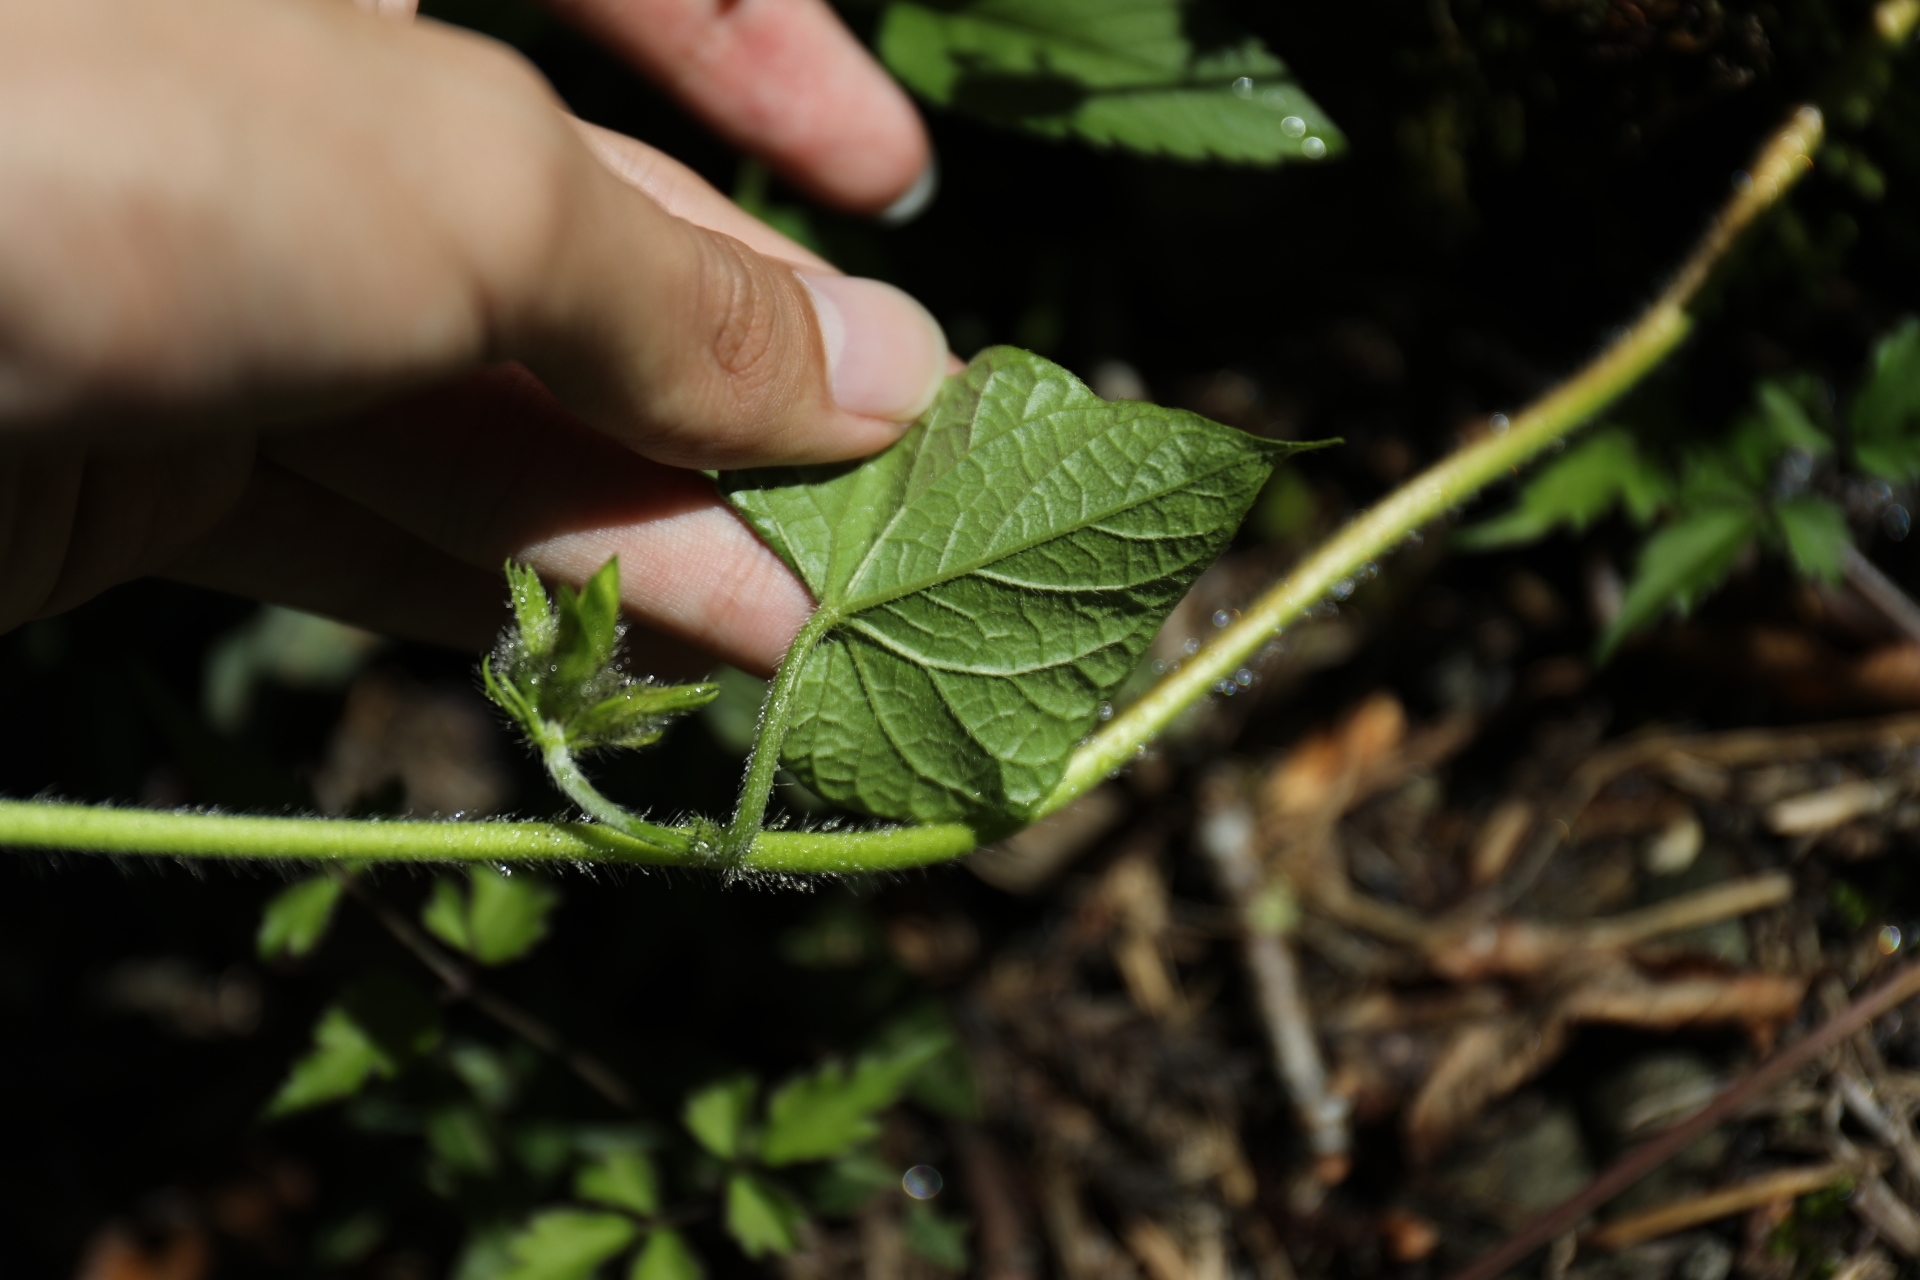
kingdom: Plantae
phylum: Tracheophyta
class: Magnoliopsida
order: Solanales
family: Convolvulaceae
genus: Ipomoea
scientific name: Ipomoea purpurea
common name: Common morning-glory
